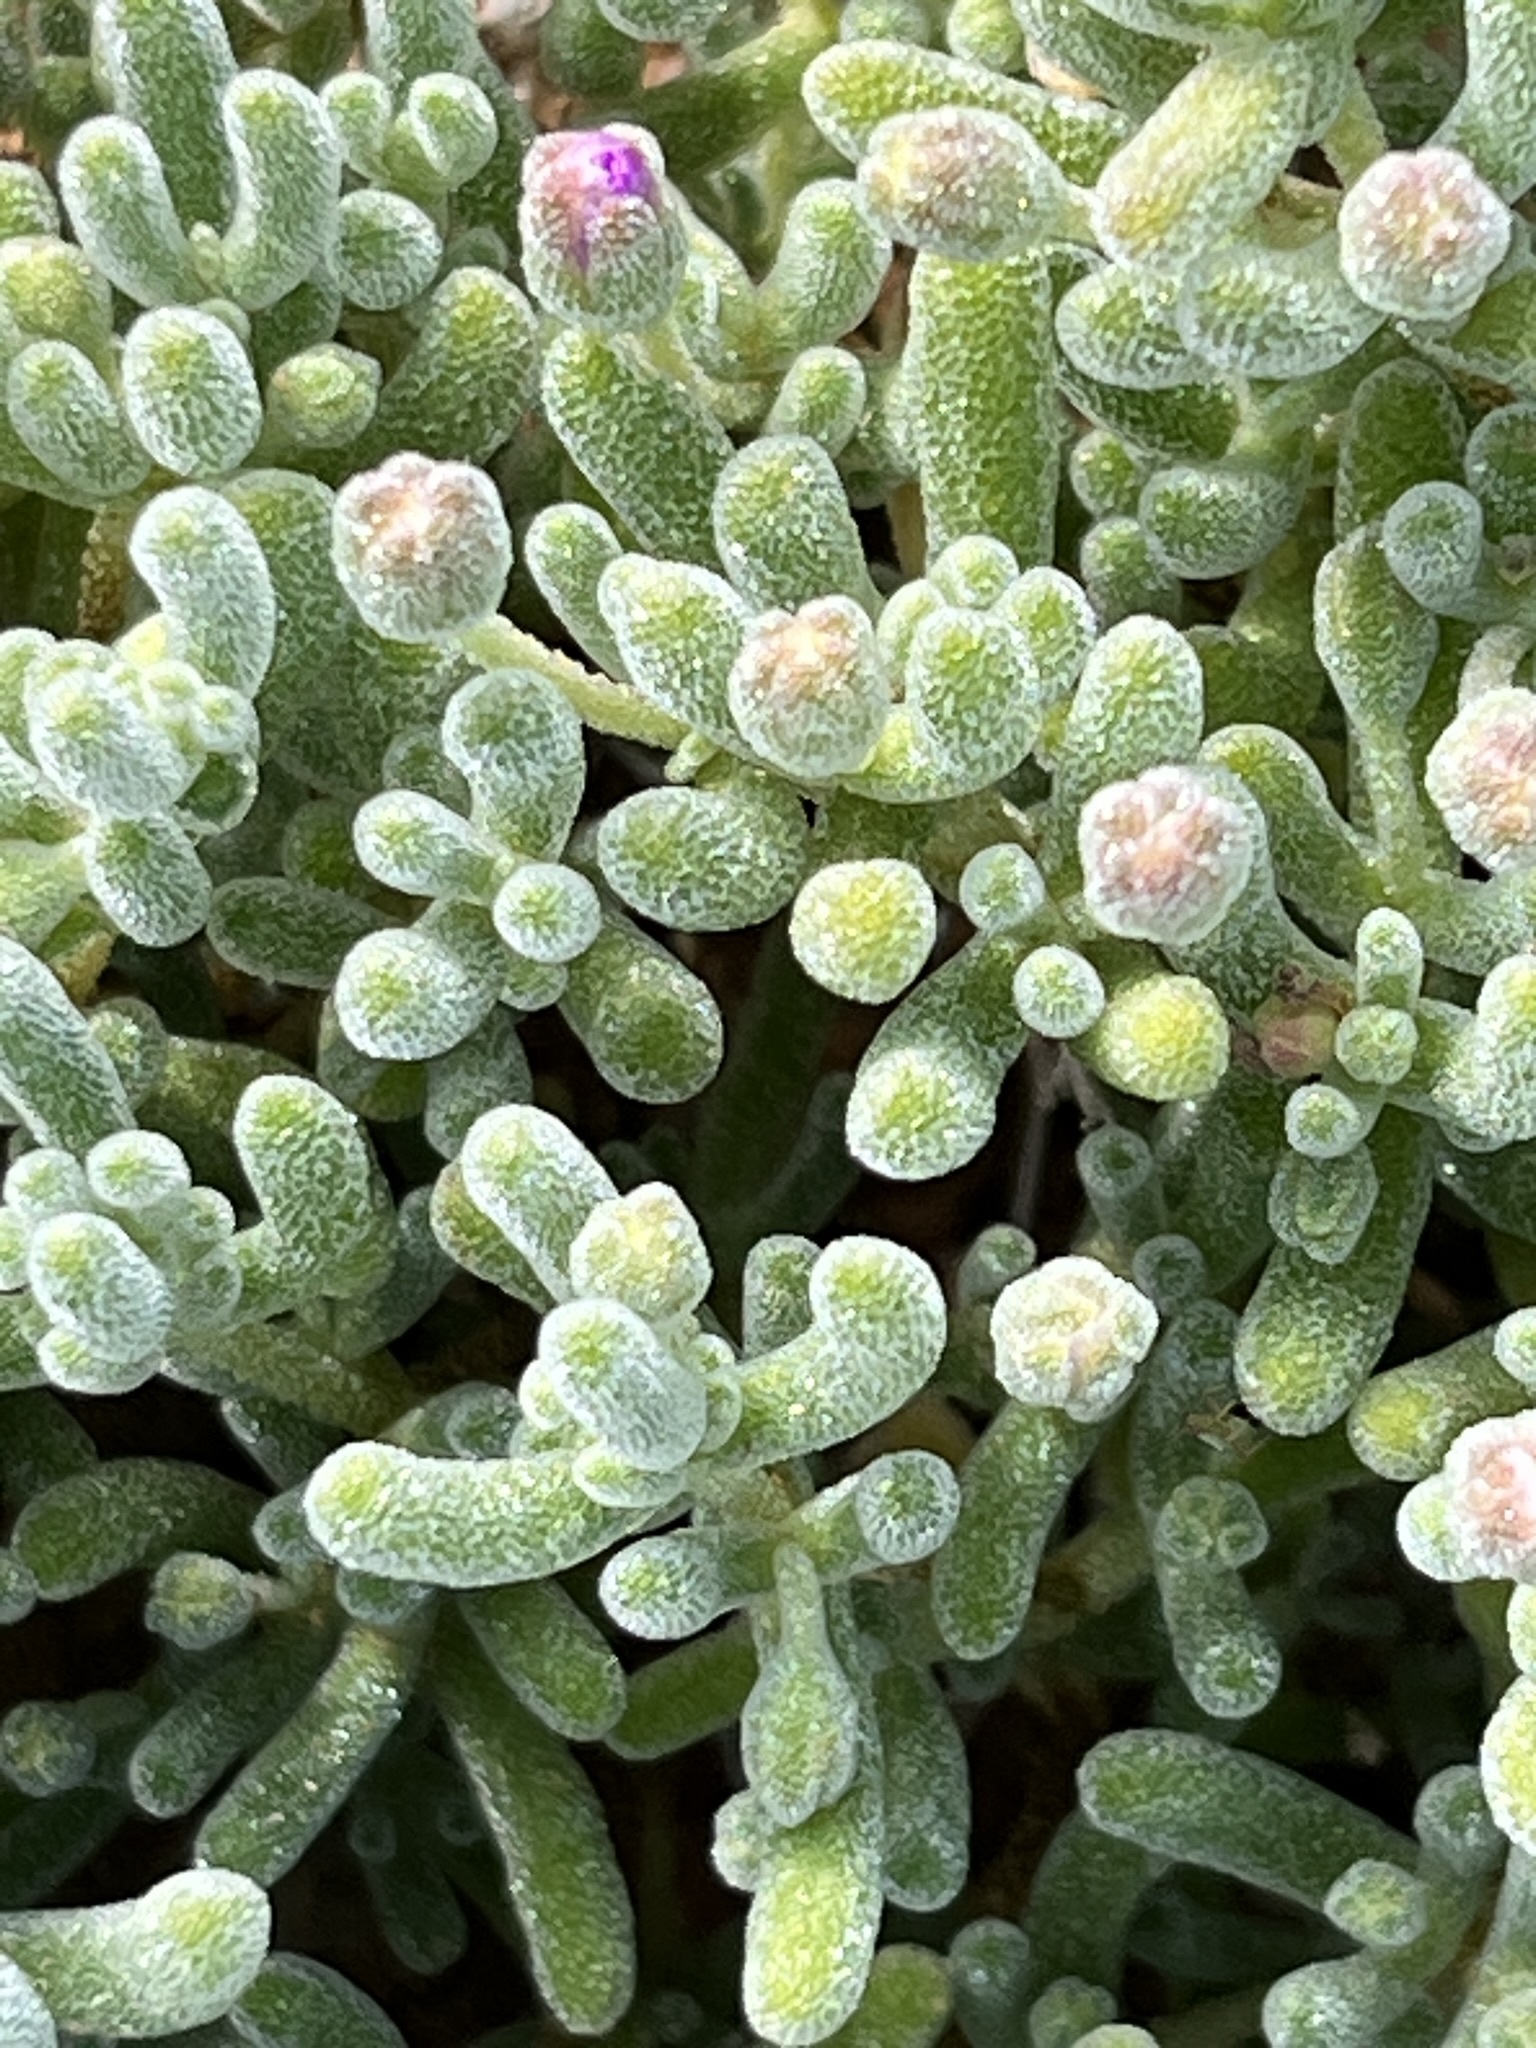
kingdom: Plantae
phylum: Tracheophyta
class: Magnoliopsida
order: Caryophyllales
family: Aizoaceae
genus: Drosanthemum
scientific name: Drosanthemum ramosissimum
